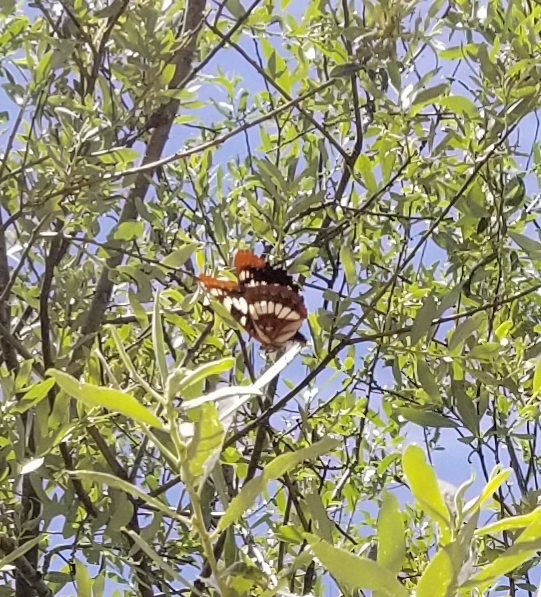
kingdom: Animalia
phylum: Arthropoda
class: Insecta
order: Lepidoptera
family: Nymphalidae
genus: Limenitis
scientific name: Limenitis lorquini
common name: Lorquin's admiral
